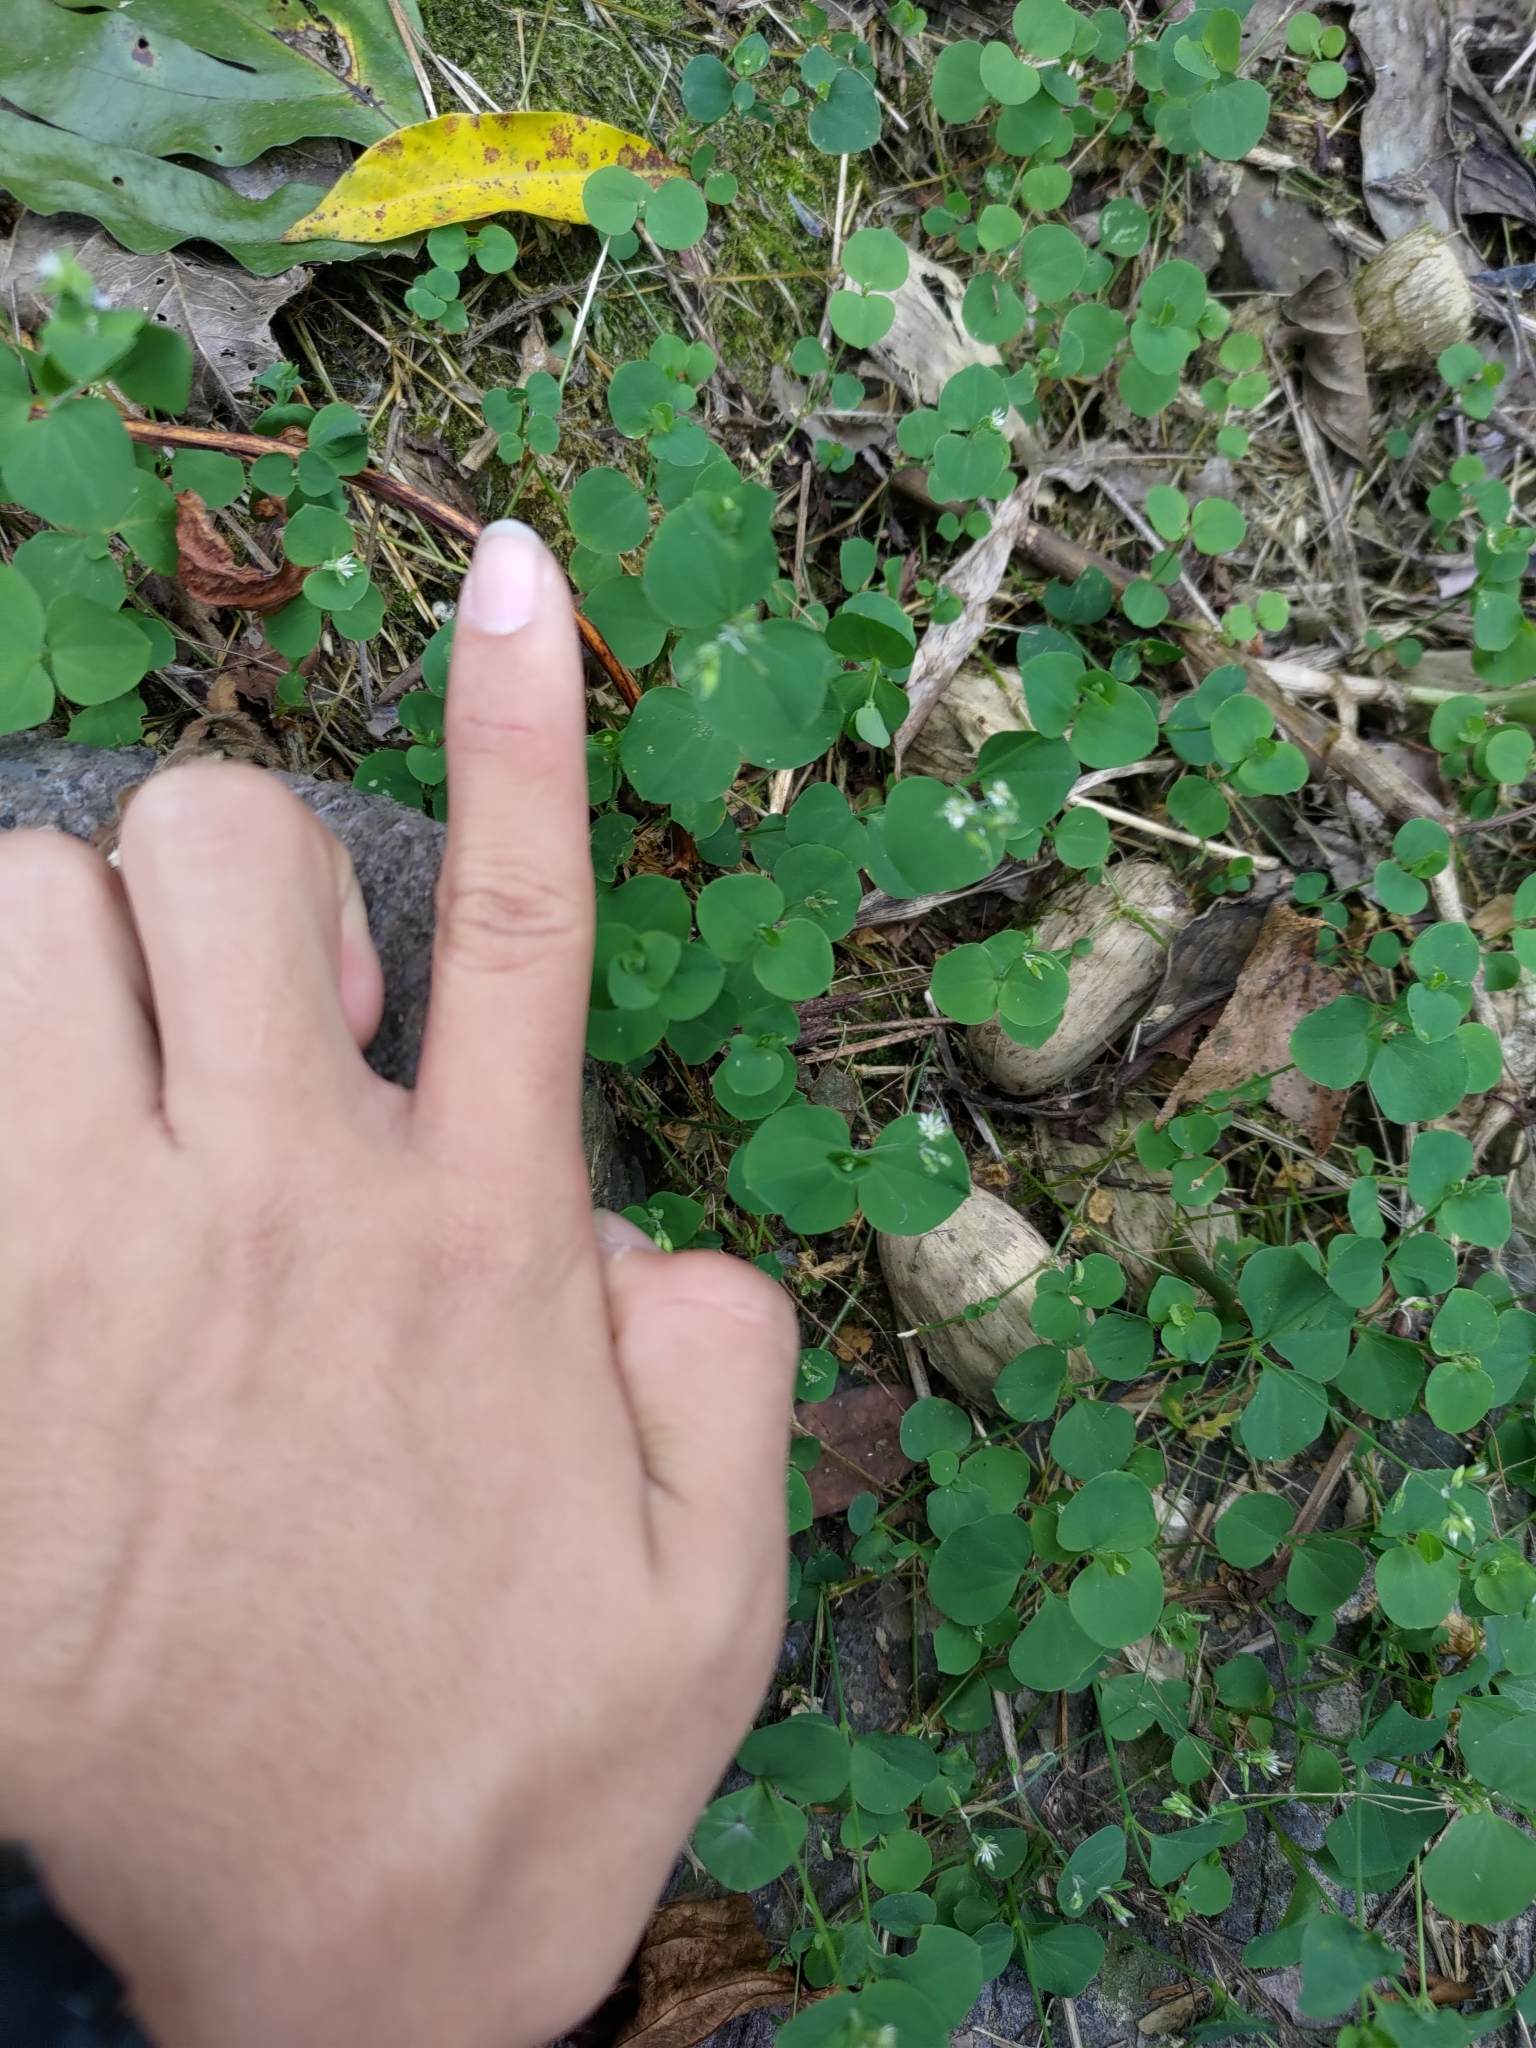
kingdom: Plantae
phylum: Tracheophyta
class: Magnoliopsida
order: Caryophyllales
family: Caryophyllaceae
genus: Drymaria
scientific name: Drymaria cordata
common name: Whitesnow
